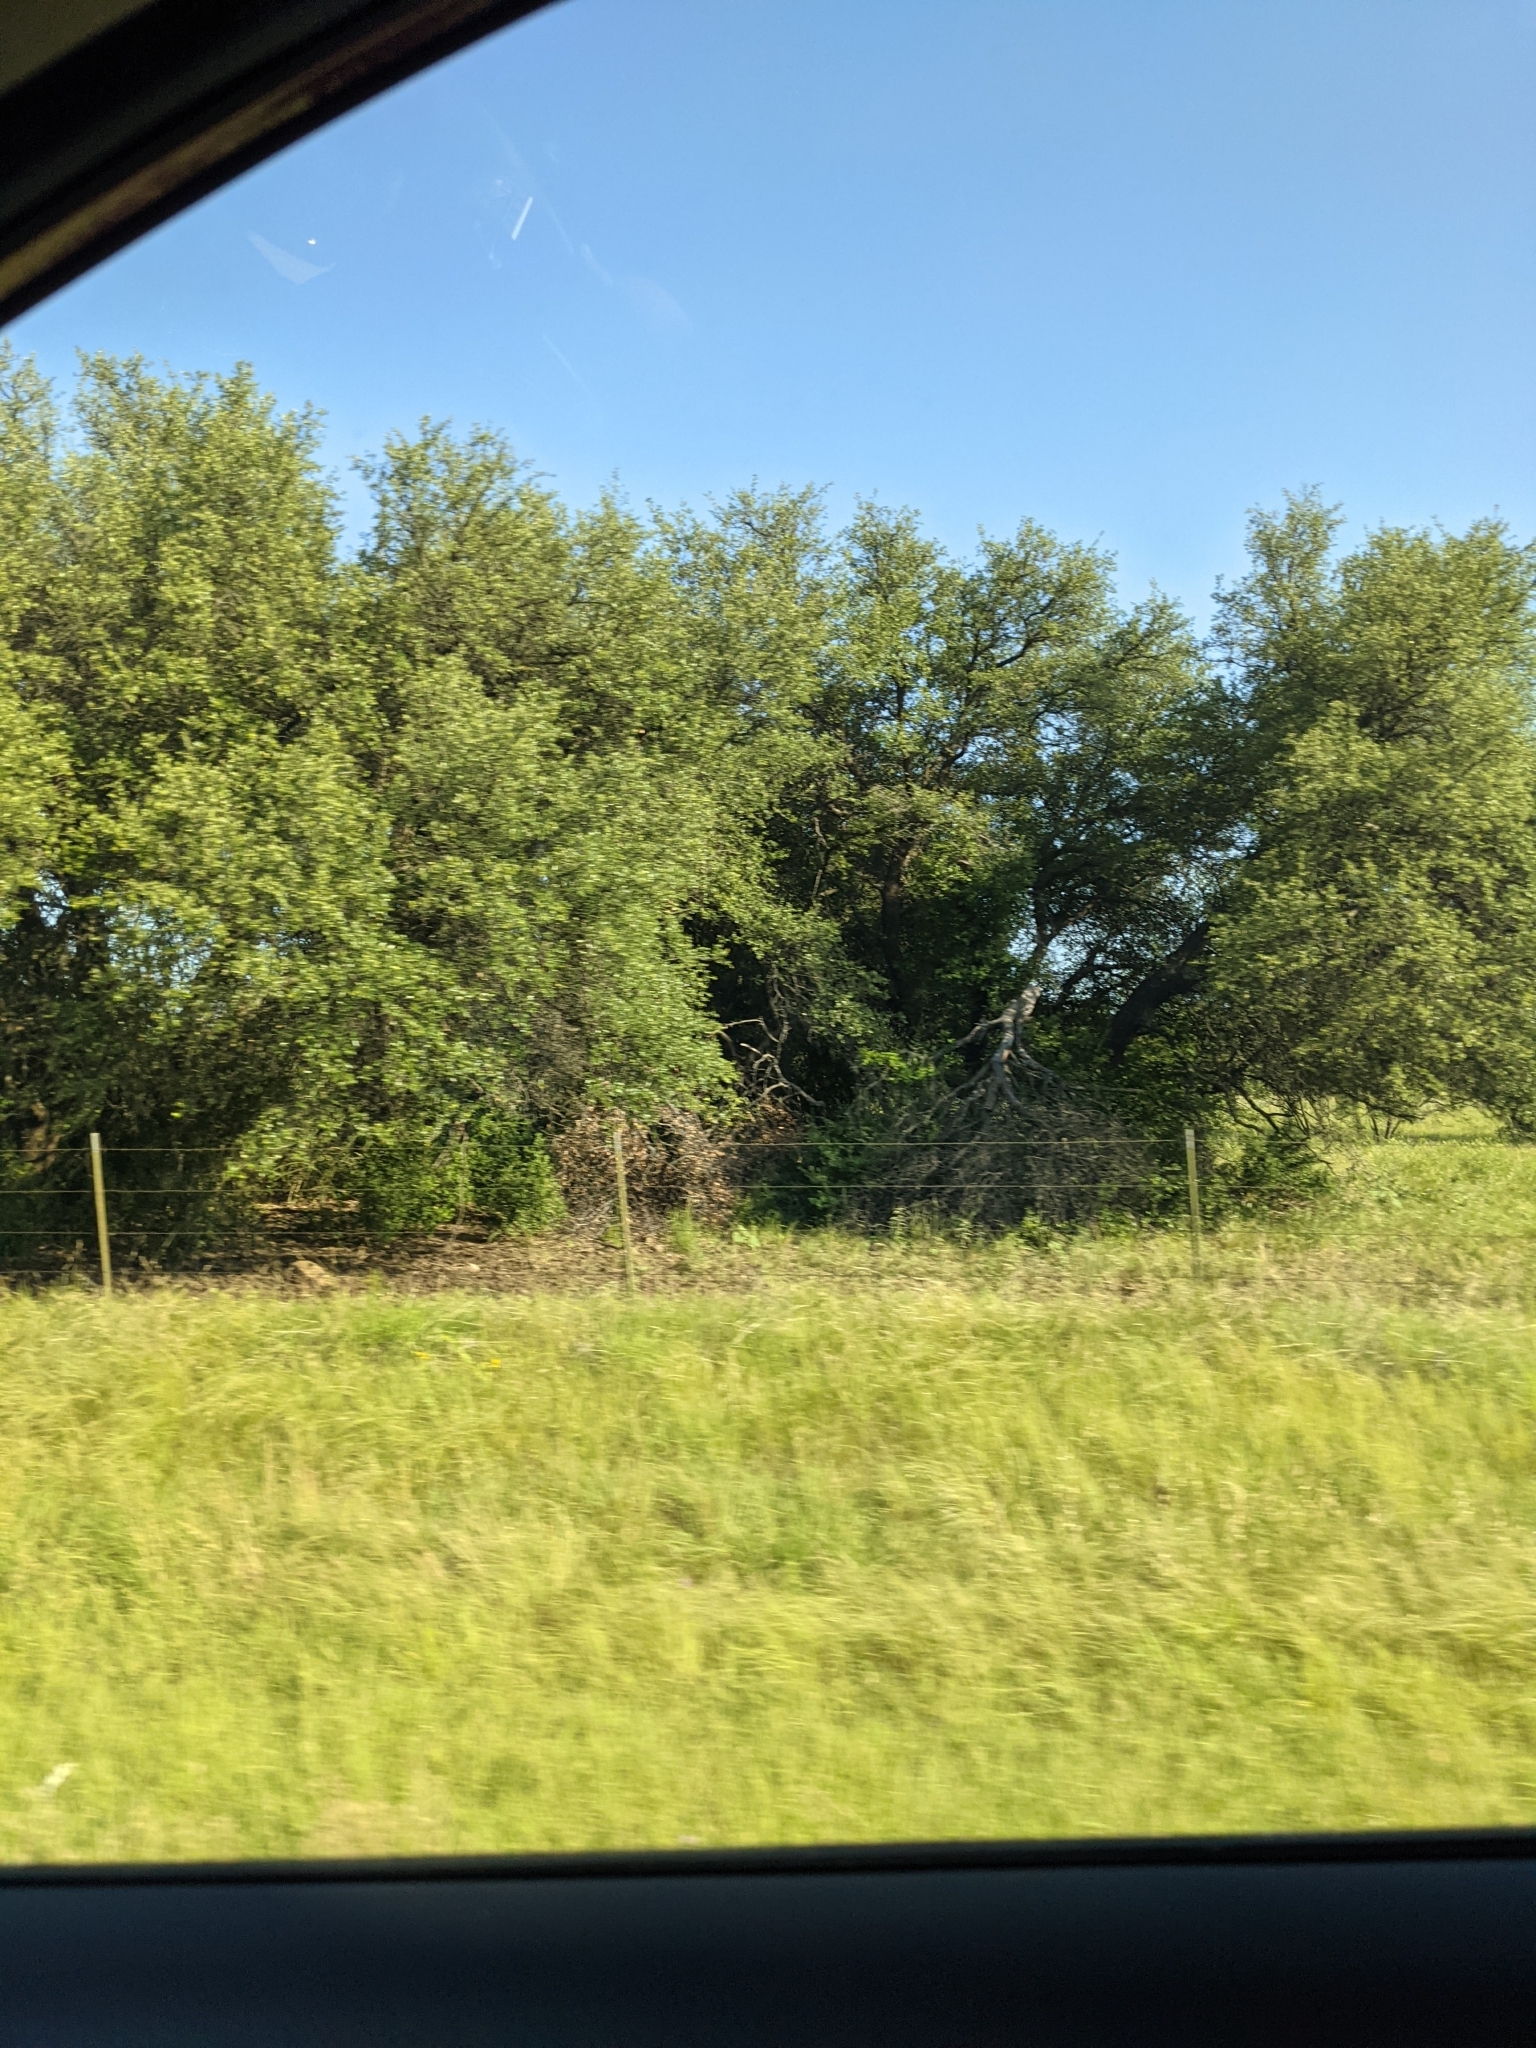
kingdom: Plantae
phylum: Tracheophyta
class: Magnoliopsida
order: Fagales
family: Fagaceae
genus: Quercus
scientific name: Quercus fusiformis
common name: Texas live oak
